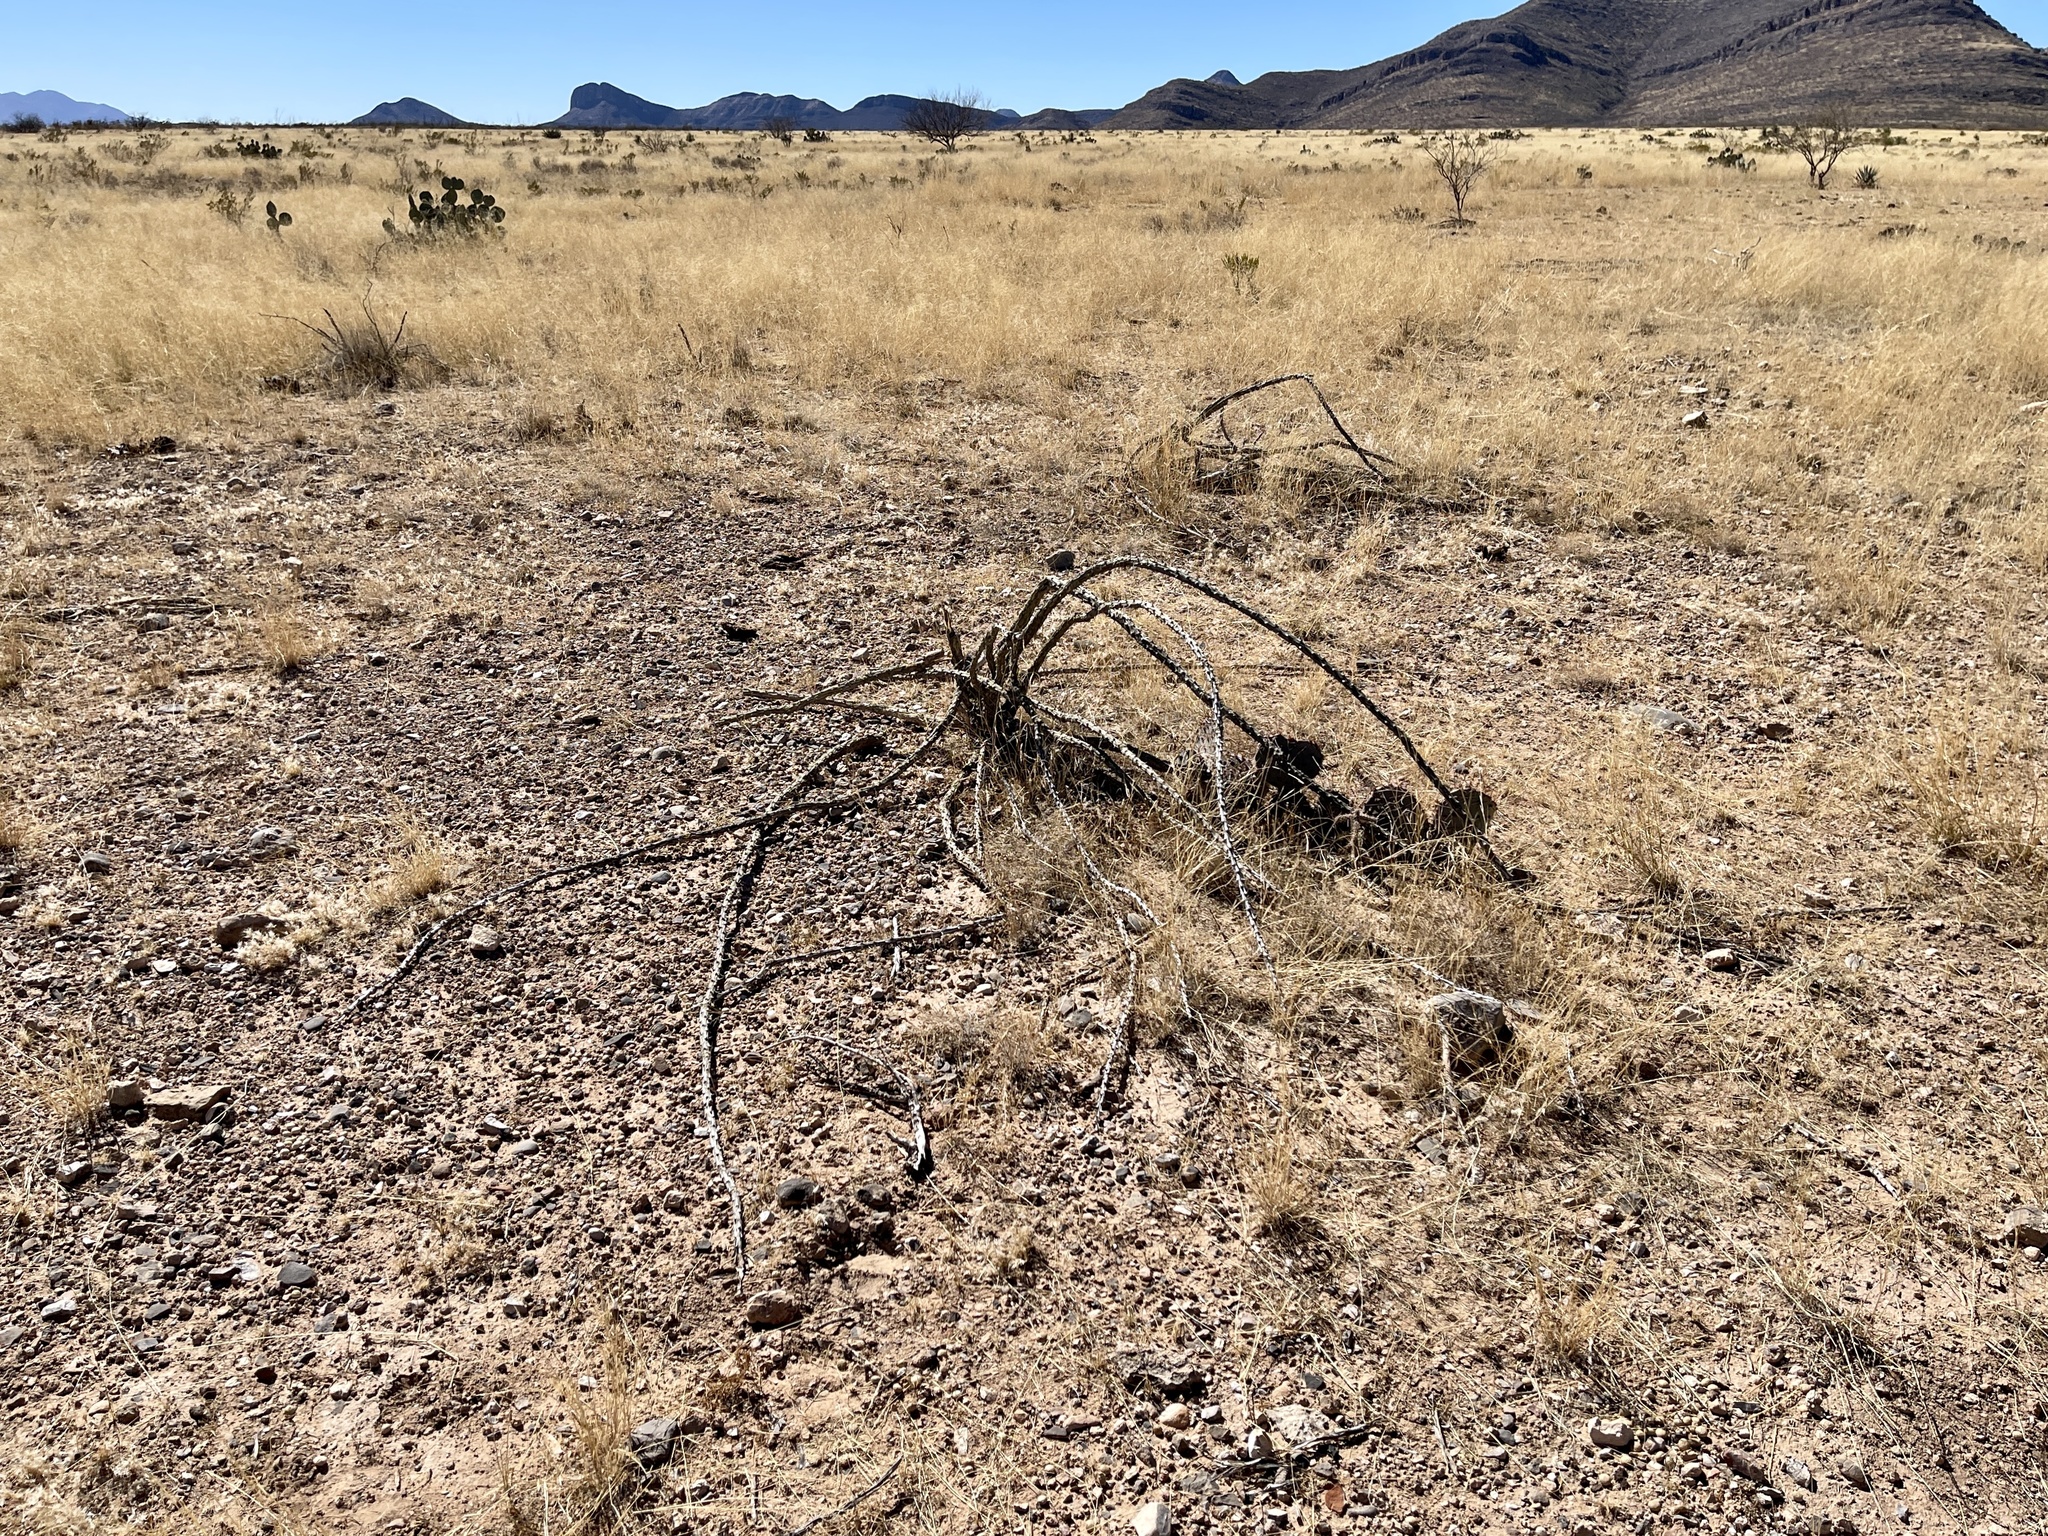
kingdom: Plantae
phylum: Tracheophyta
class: Magnoliopsida
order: Ericales
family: Fouquieriaceae
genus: Fouquieria
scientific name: Fouquieria splendens
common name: Vine-cactus
